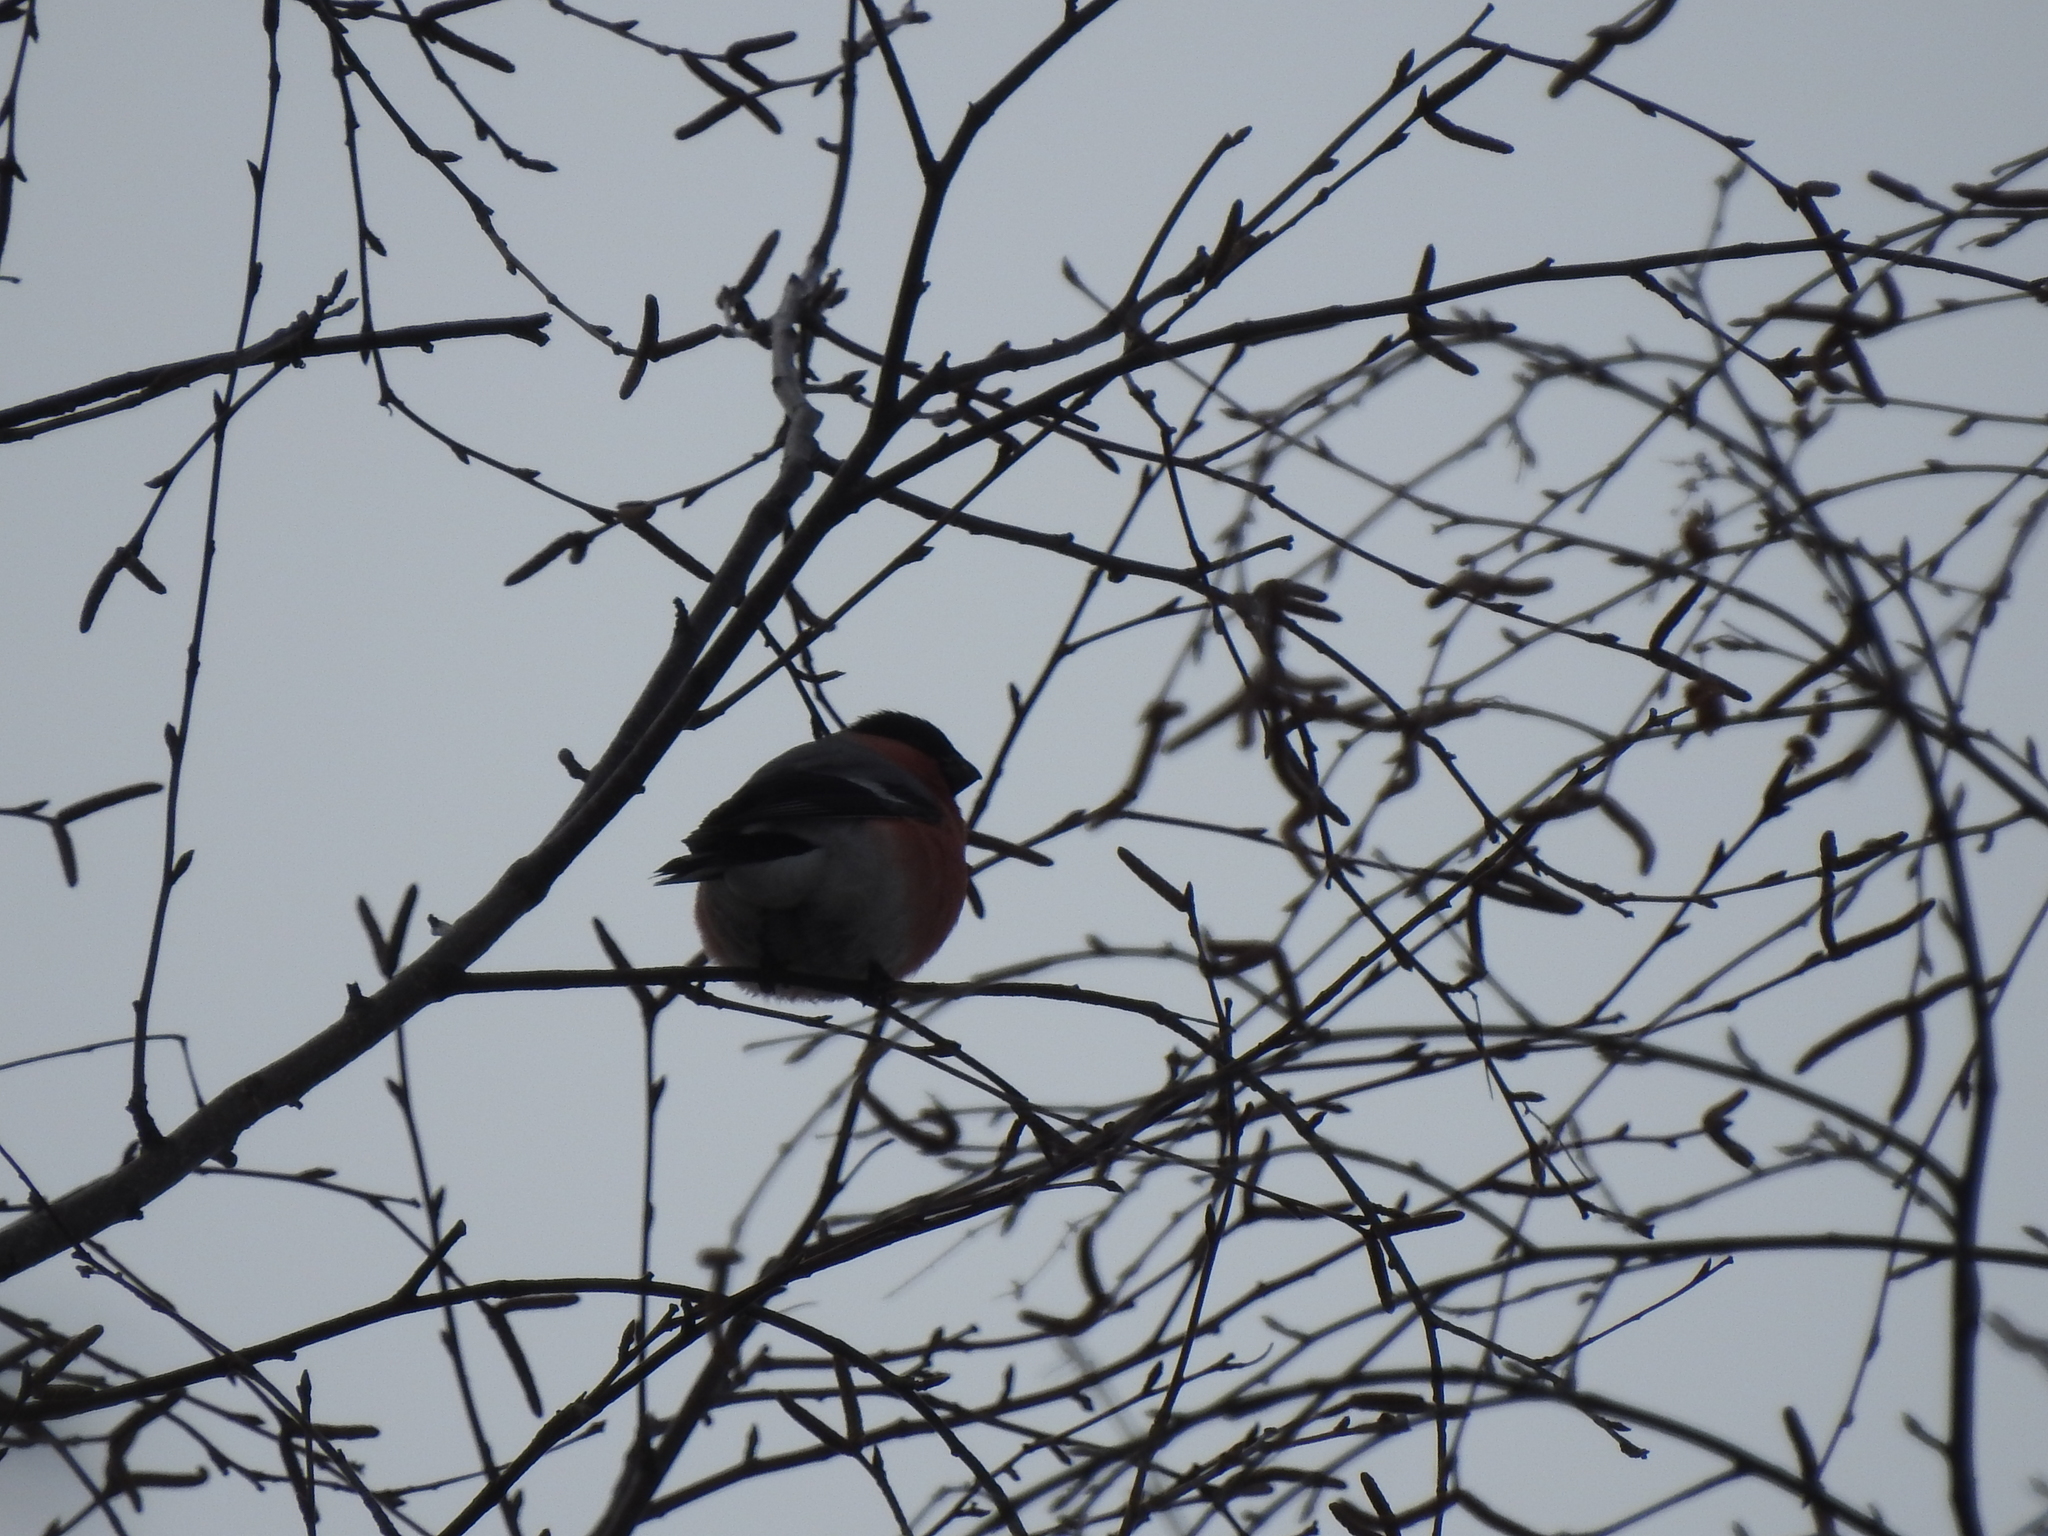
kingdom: Animalia
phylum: Chordata
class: Aves
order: Passeriformes
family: Fringillidae
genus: Pyrrhula
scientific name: Pyrrhula pyrrhula
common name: Eurasian bullfinch
